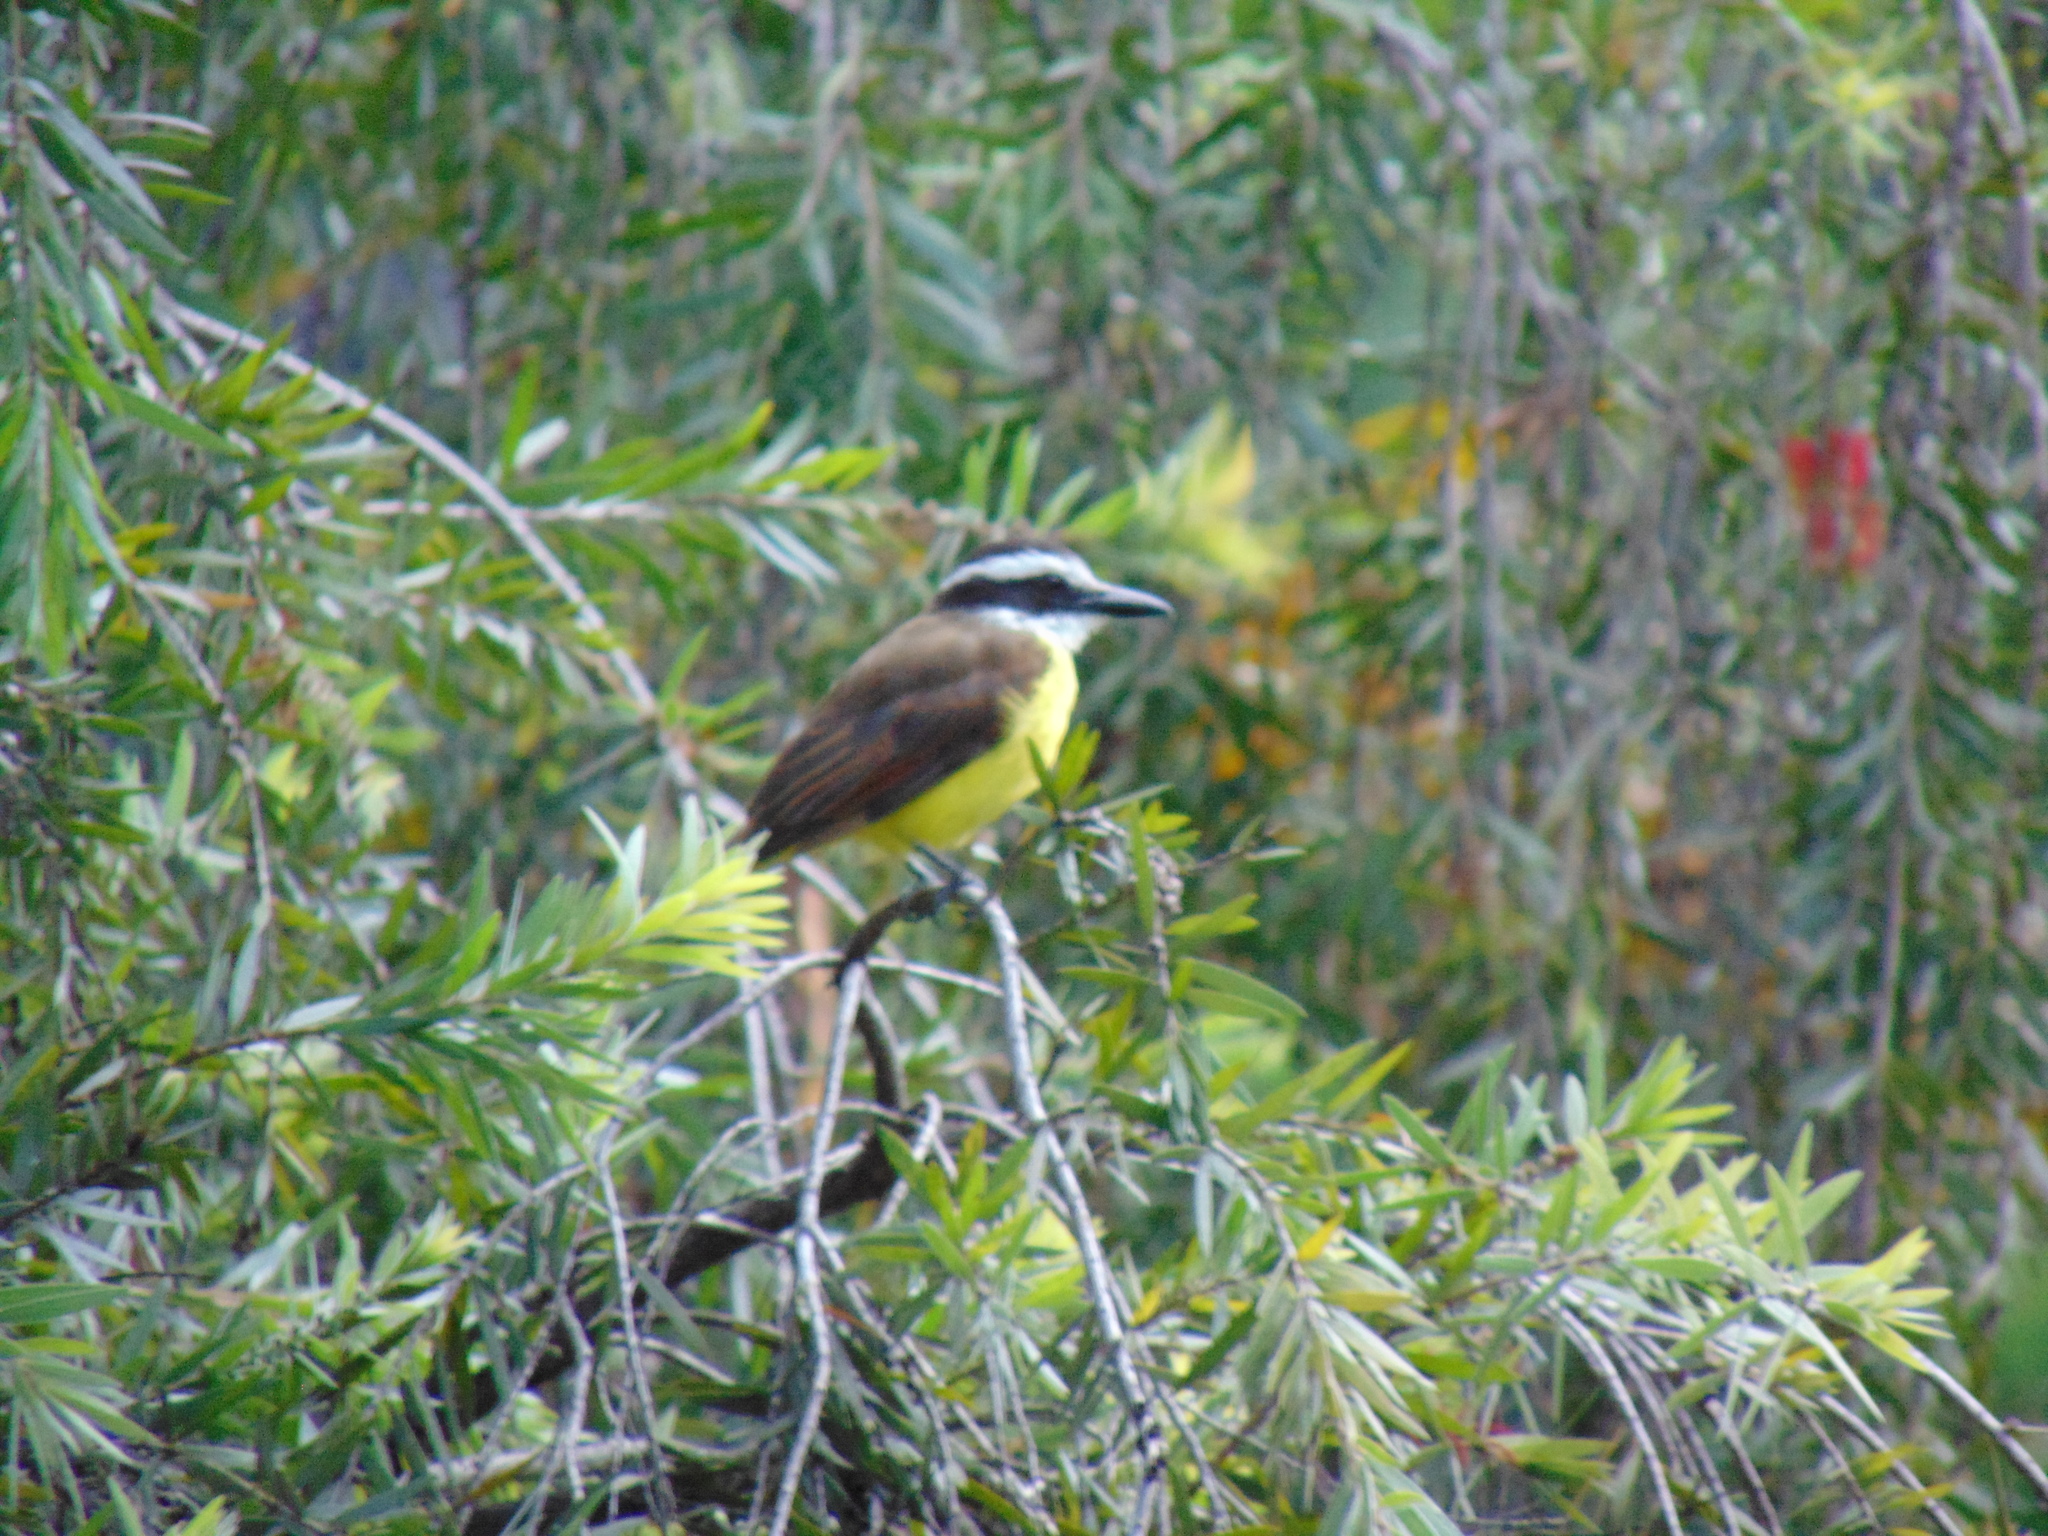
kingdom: Animalia
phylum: Chordata
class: Aves
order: Passeriformes
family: Tyrannidae
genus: Pitangus
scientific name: Pitangus sulphuratus
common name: Great kiskadee
